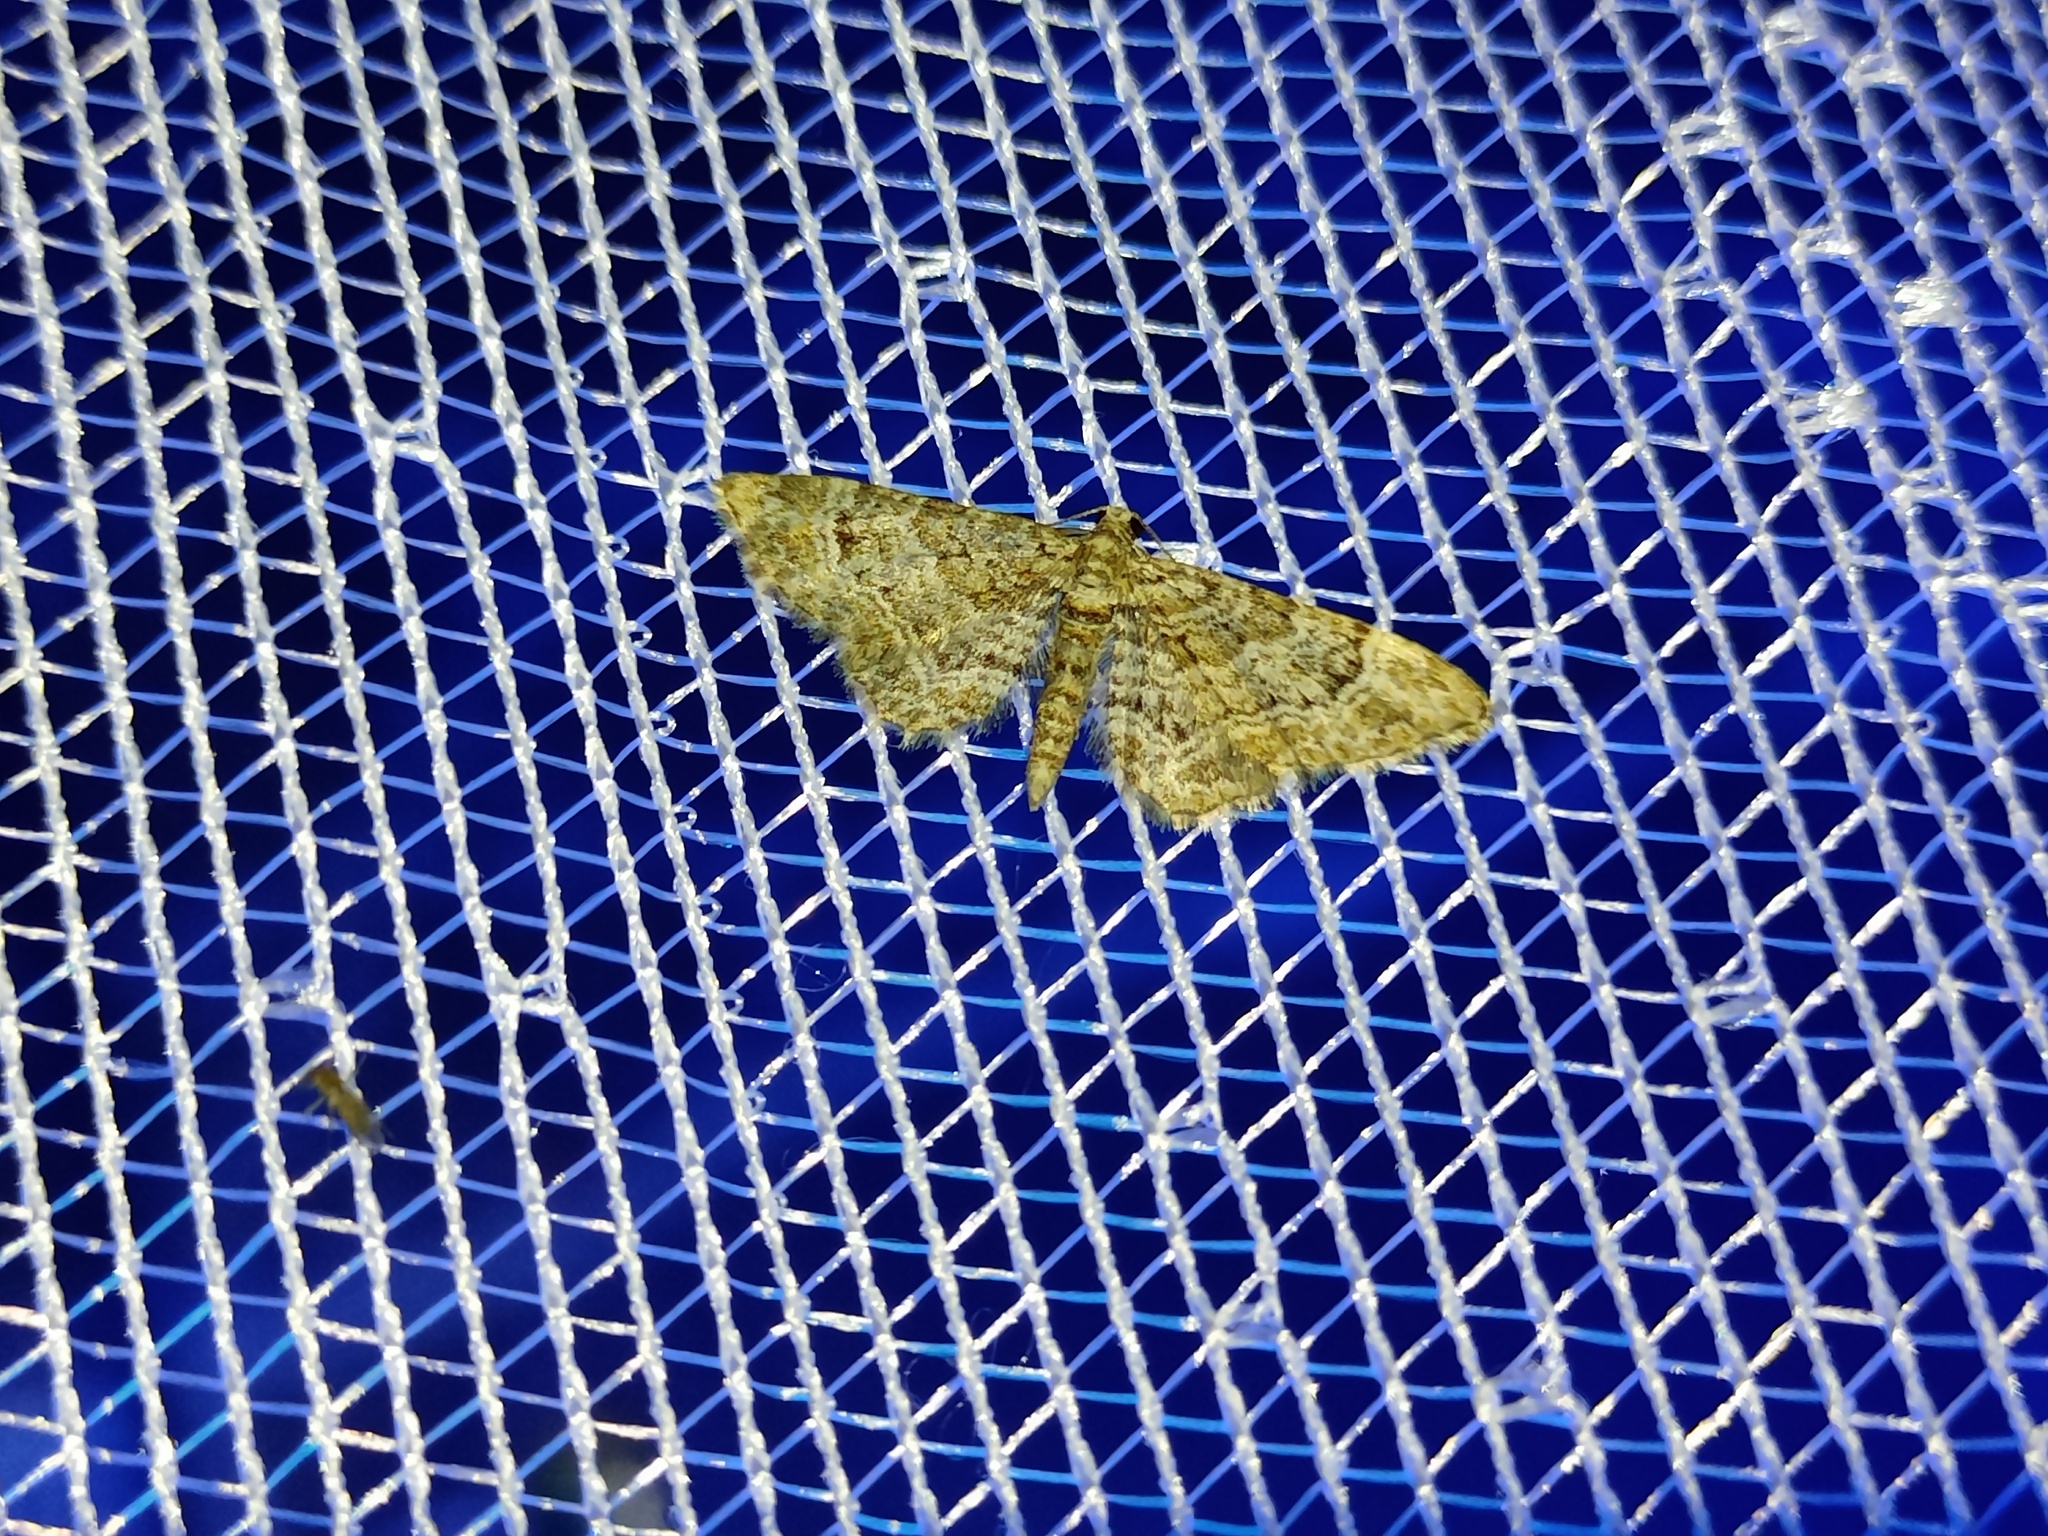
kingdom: Animalia
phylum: Arthropoda
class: Insecta
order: Lepidoptera
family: Geometridae
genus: Gymnoscelis
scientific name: Gymnoscelis rufifasciata
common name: Double-striped pug
